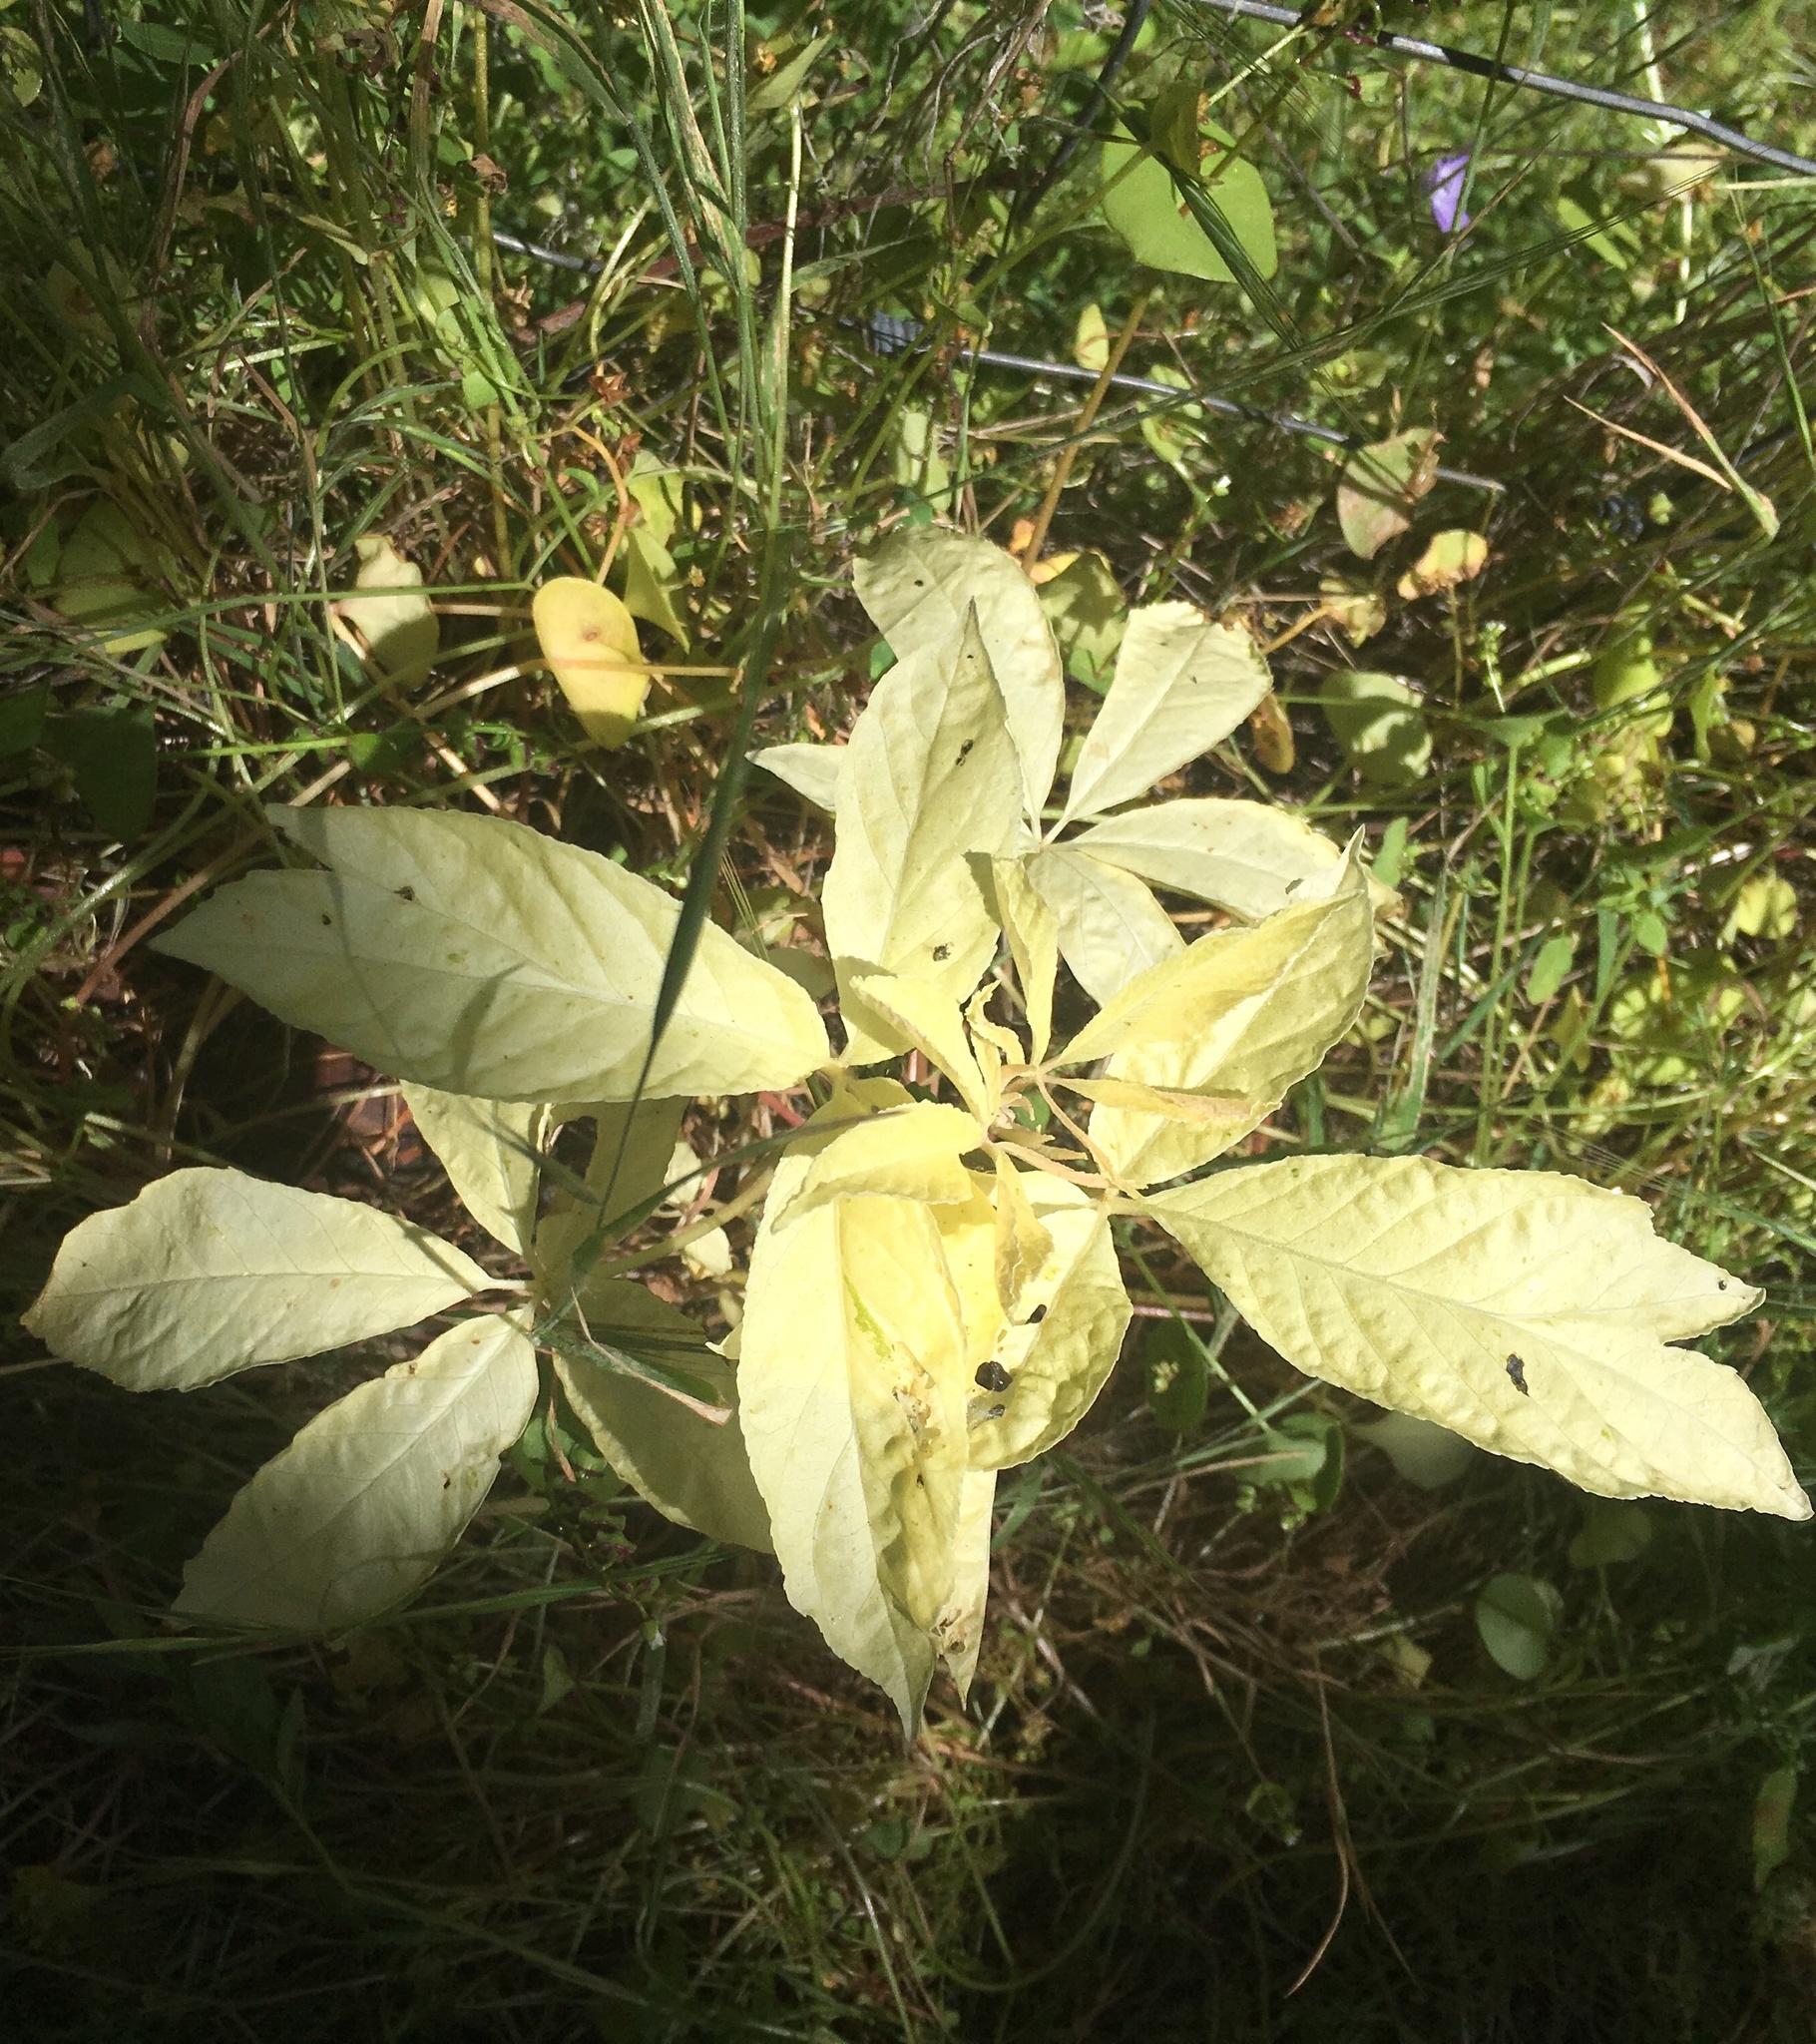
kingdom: Plantae
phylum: Tracheophyta
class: Magnoliopsida
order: Sapindales
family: Sapindaceae
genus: Aesculus
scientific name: Aesculus californica
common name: California buckeye
